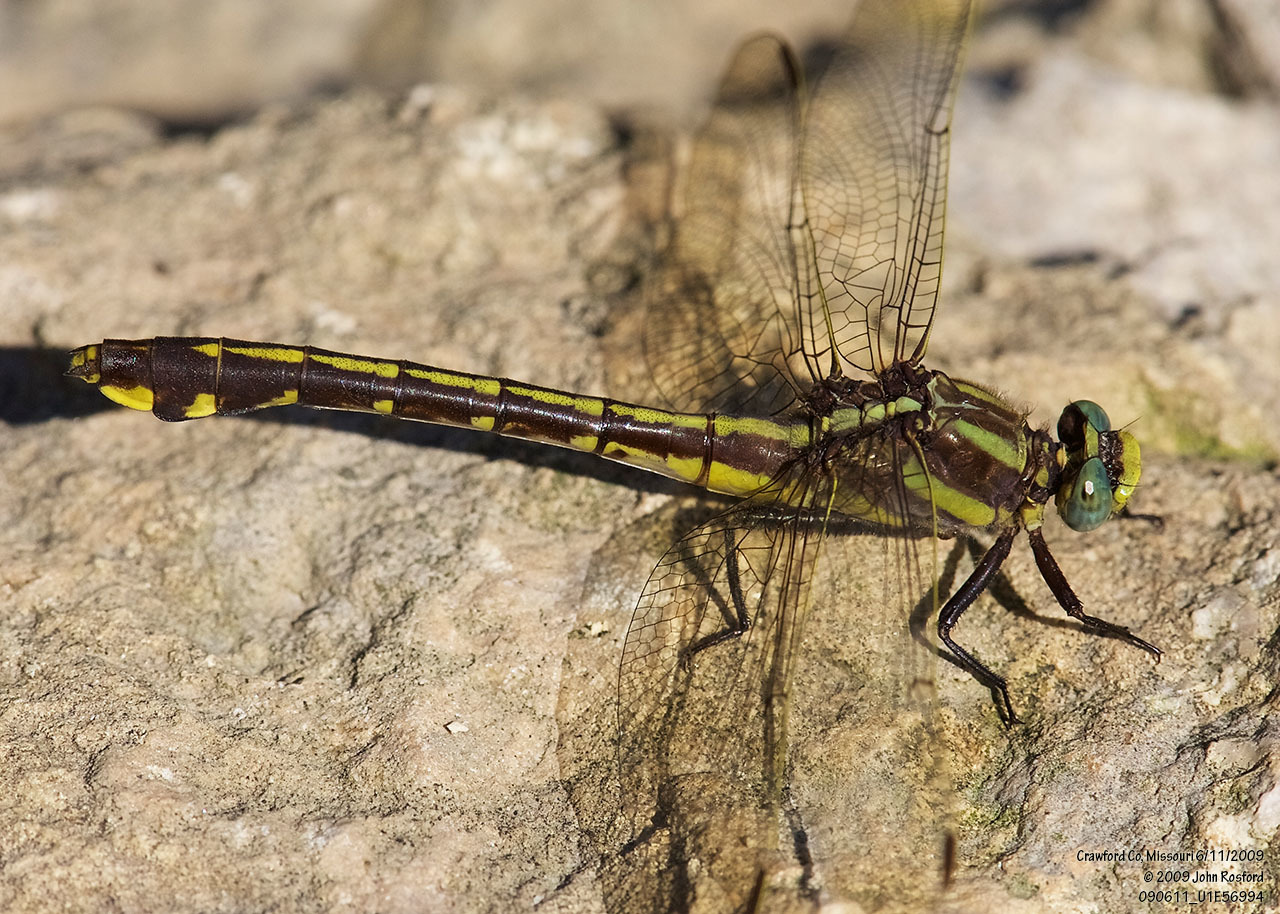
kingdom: Animalia
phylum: Arthropoda
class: Insecta
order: Odonata
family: Gomphidae
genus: Gomphurus
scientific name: Gomphurus ozarkensis
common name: Ozark clubtail
